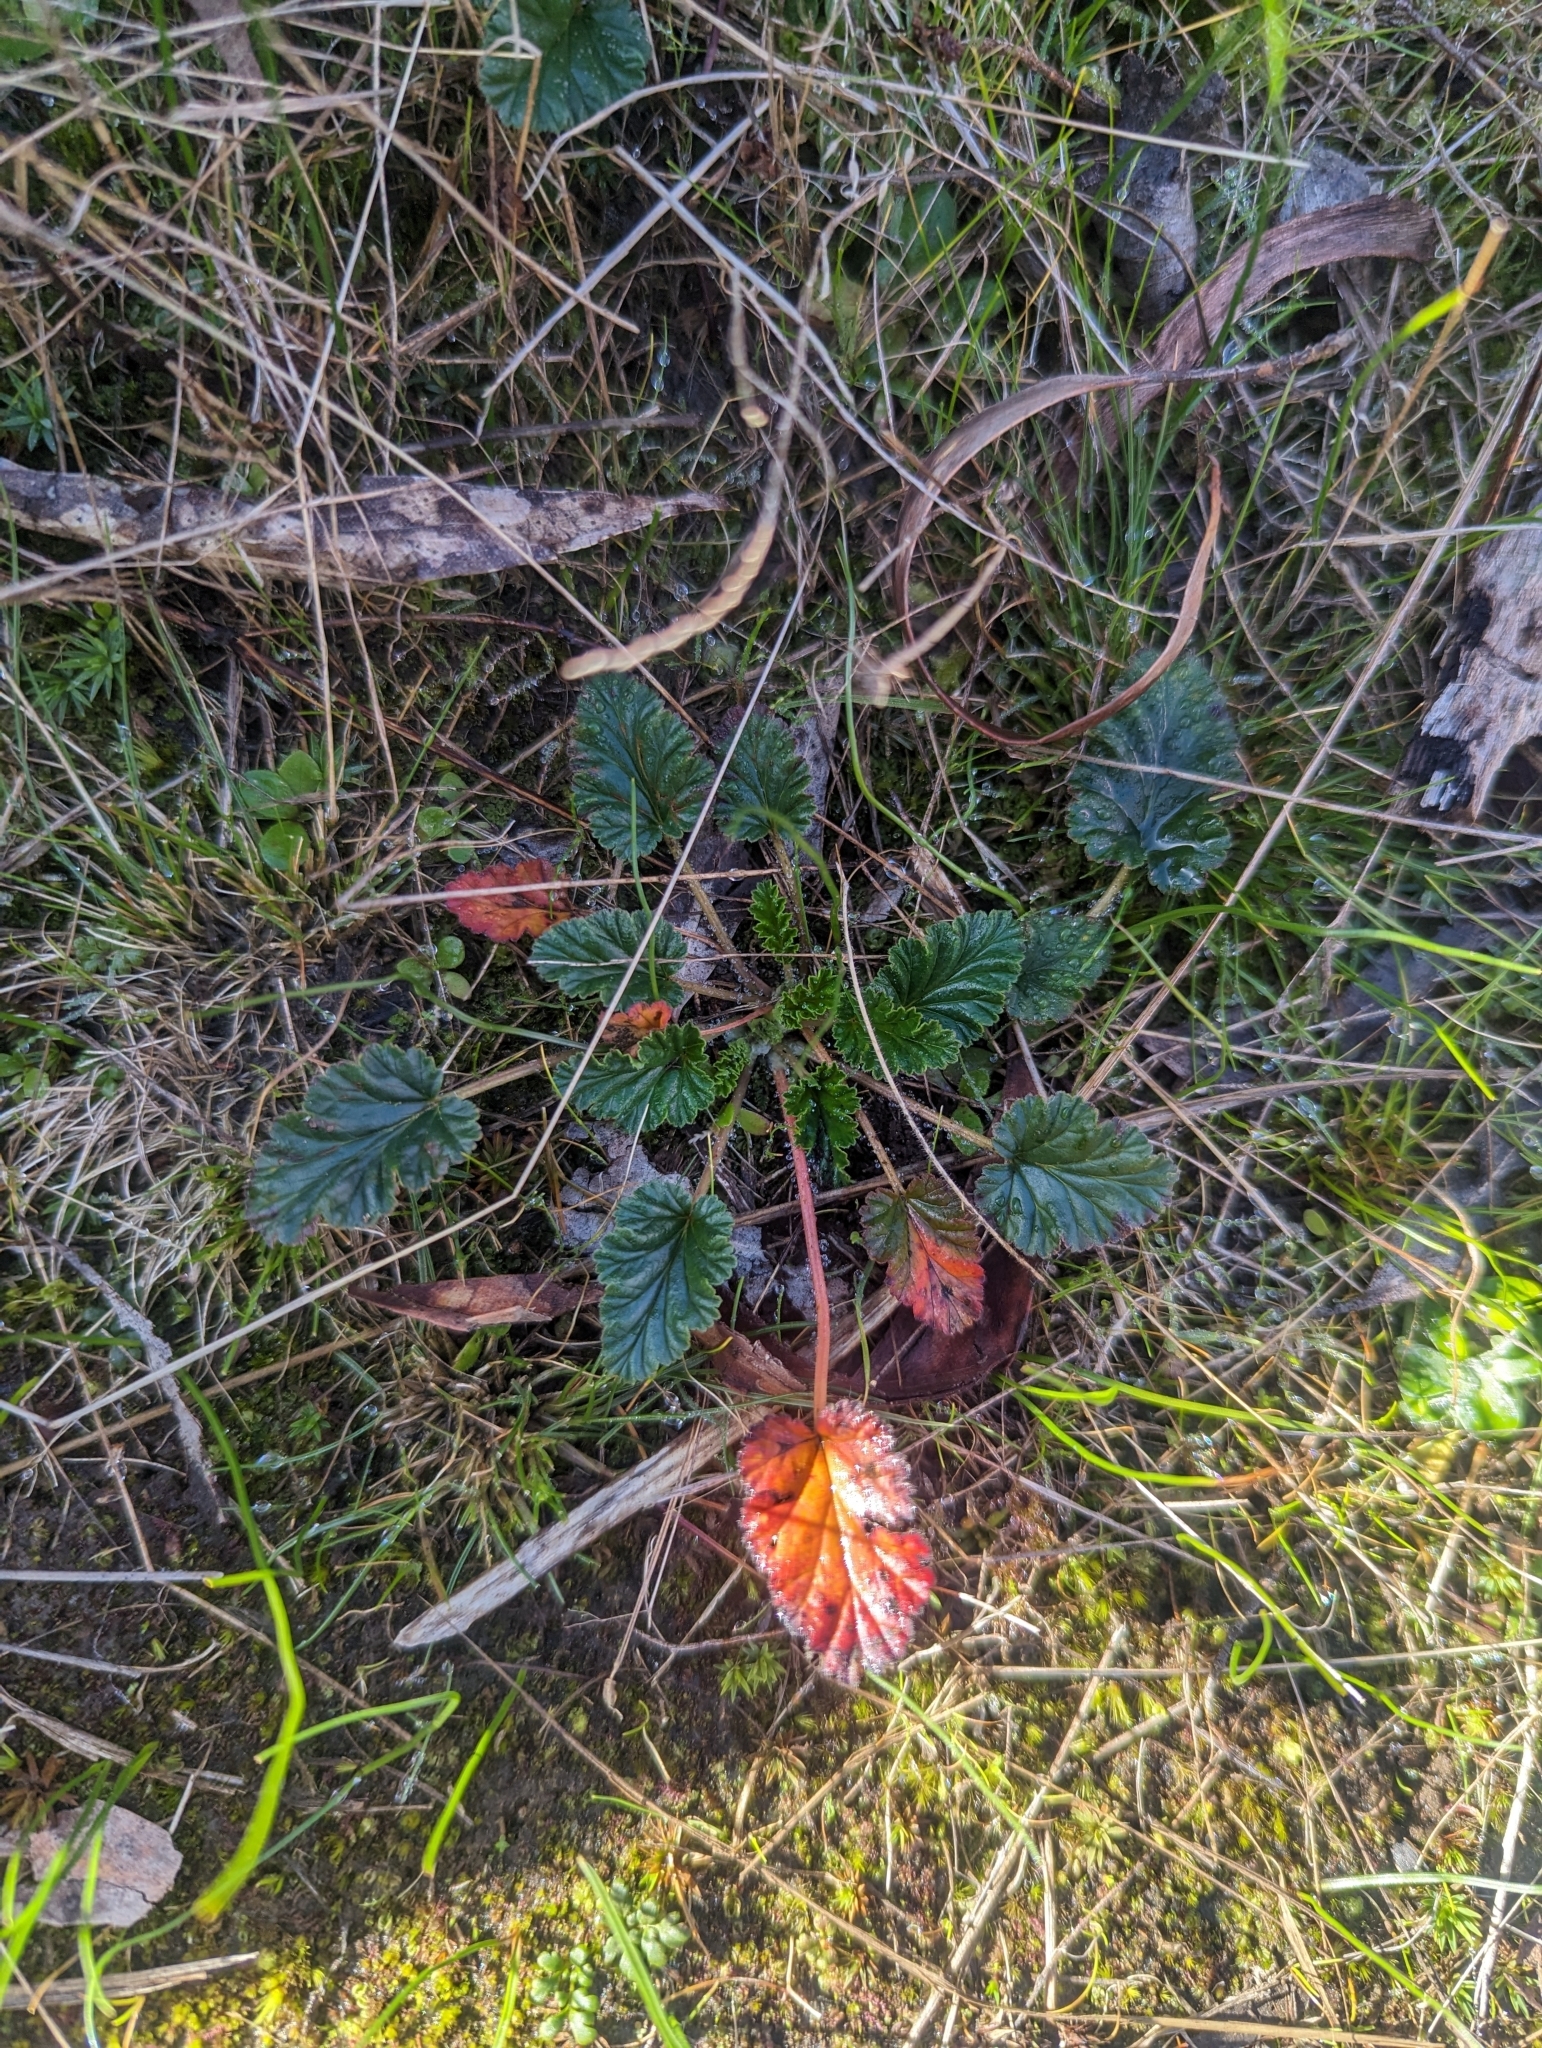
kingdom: Plantae
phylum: Tracheophyta
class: Magnoliopsida
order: Geraniales
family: Geraniaceae
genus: Pelargonium
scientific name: Pelargonium rodneyanum
